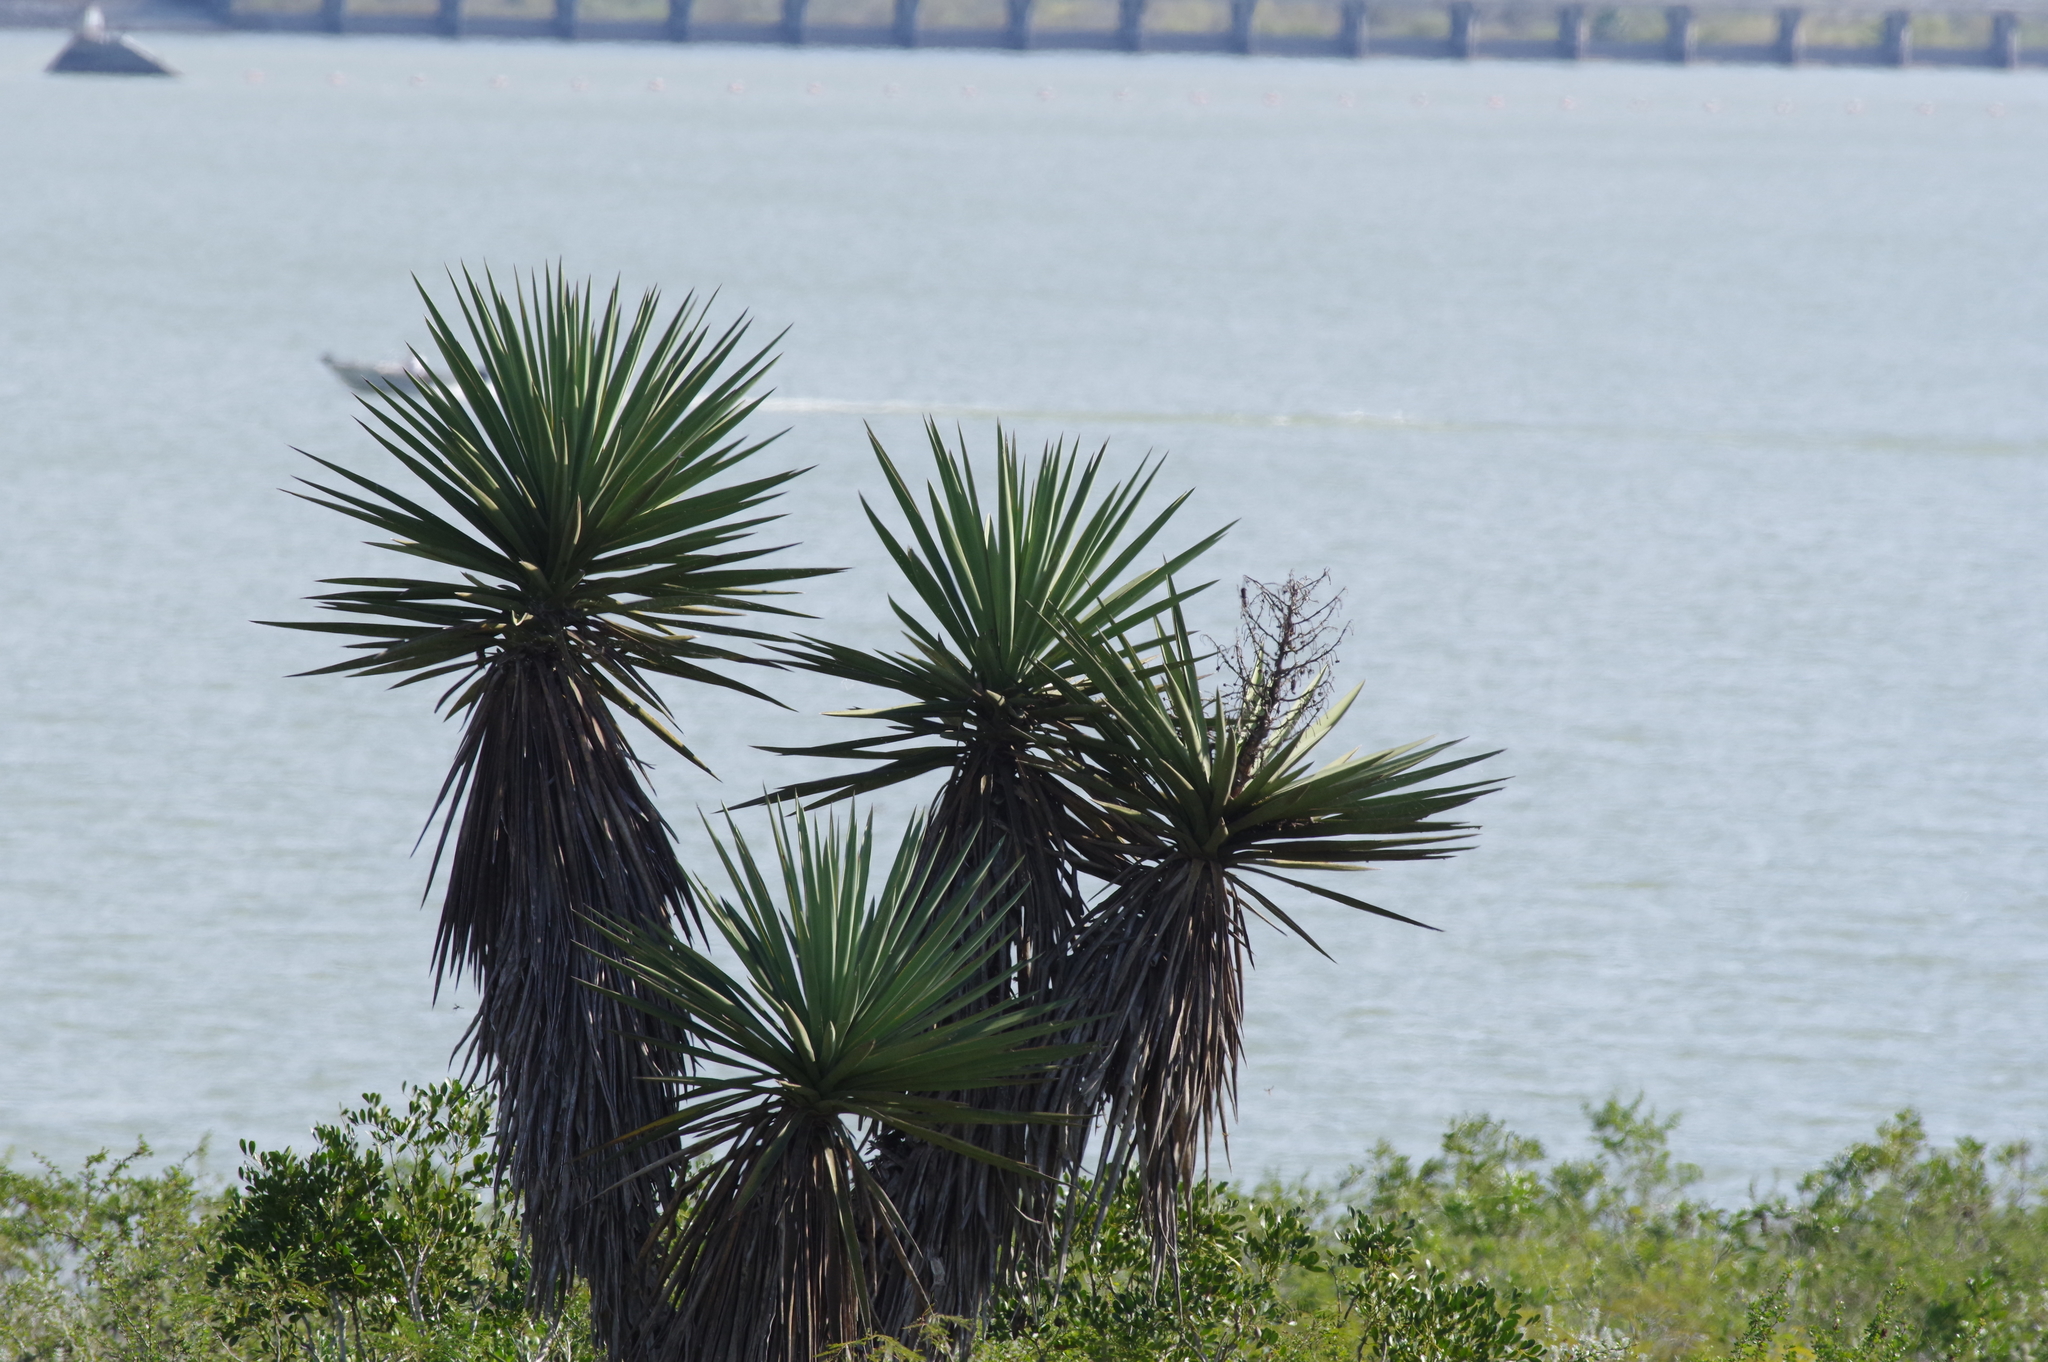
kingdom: Plantae
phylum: Tracheophyta
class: Liliopsida
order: Asparagales
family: Asparagaceae
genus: Yucca
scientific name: Yucca treculiana
